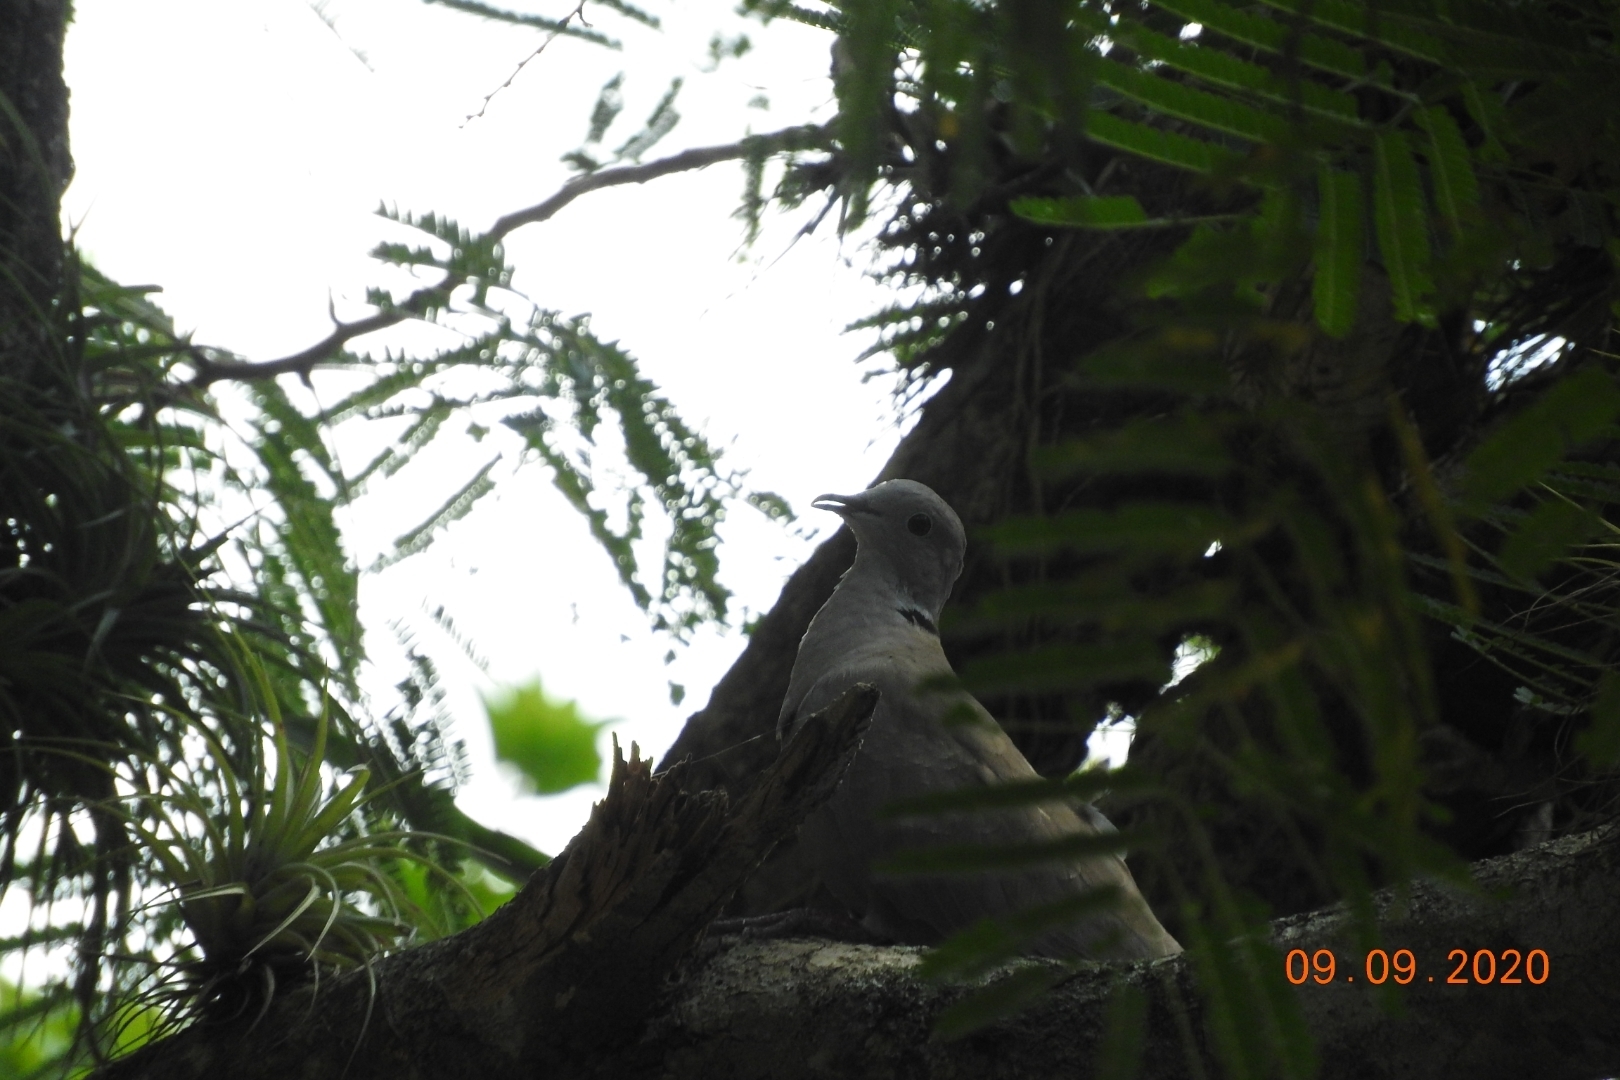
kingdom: Animalia
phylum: Chordata
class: Aves
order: Columbiformes
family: Columbidae
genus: Streptopelia
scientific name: Streptopelia decaocto
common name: Eurasian collared dove
